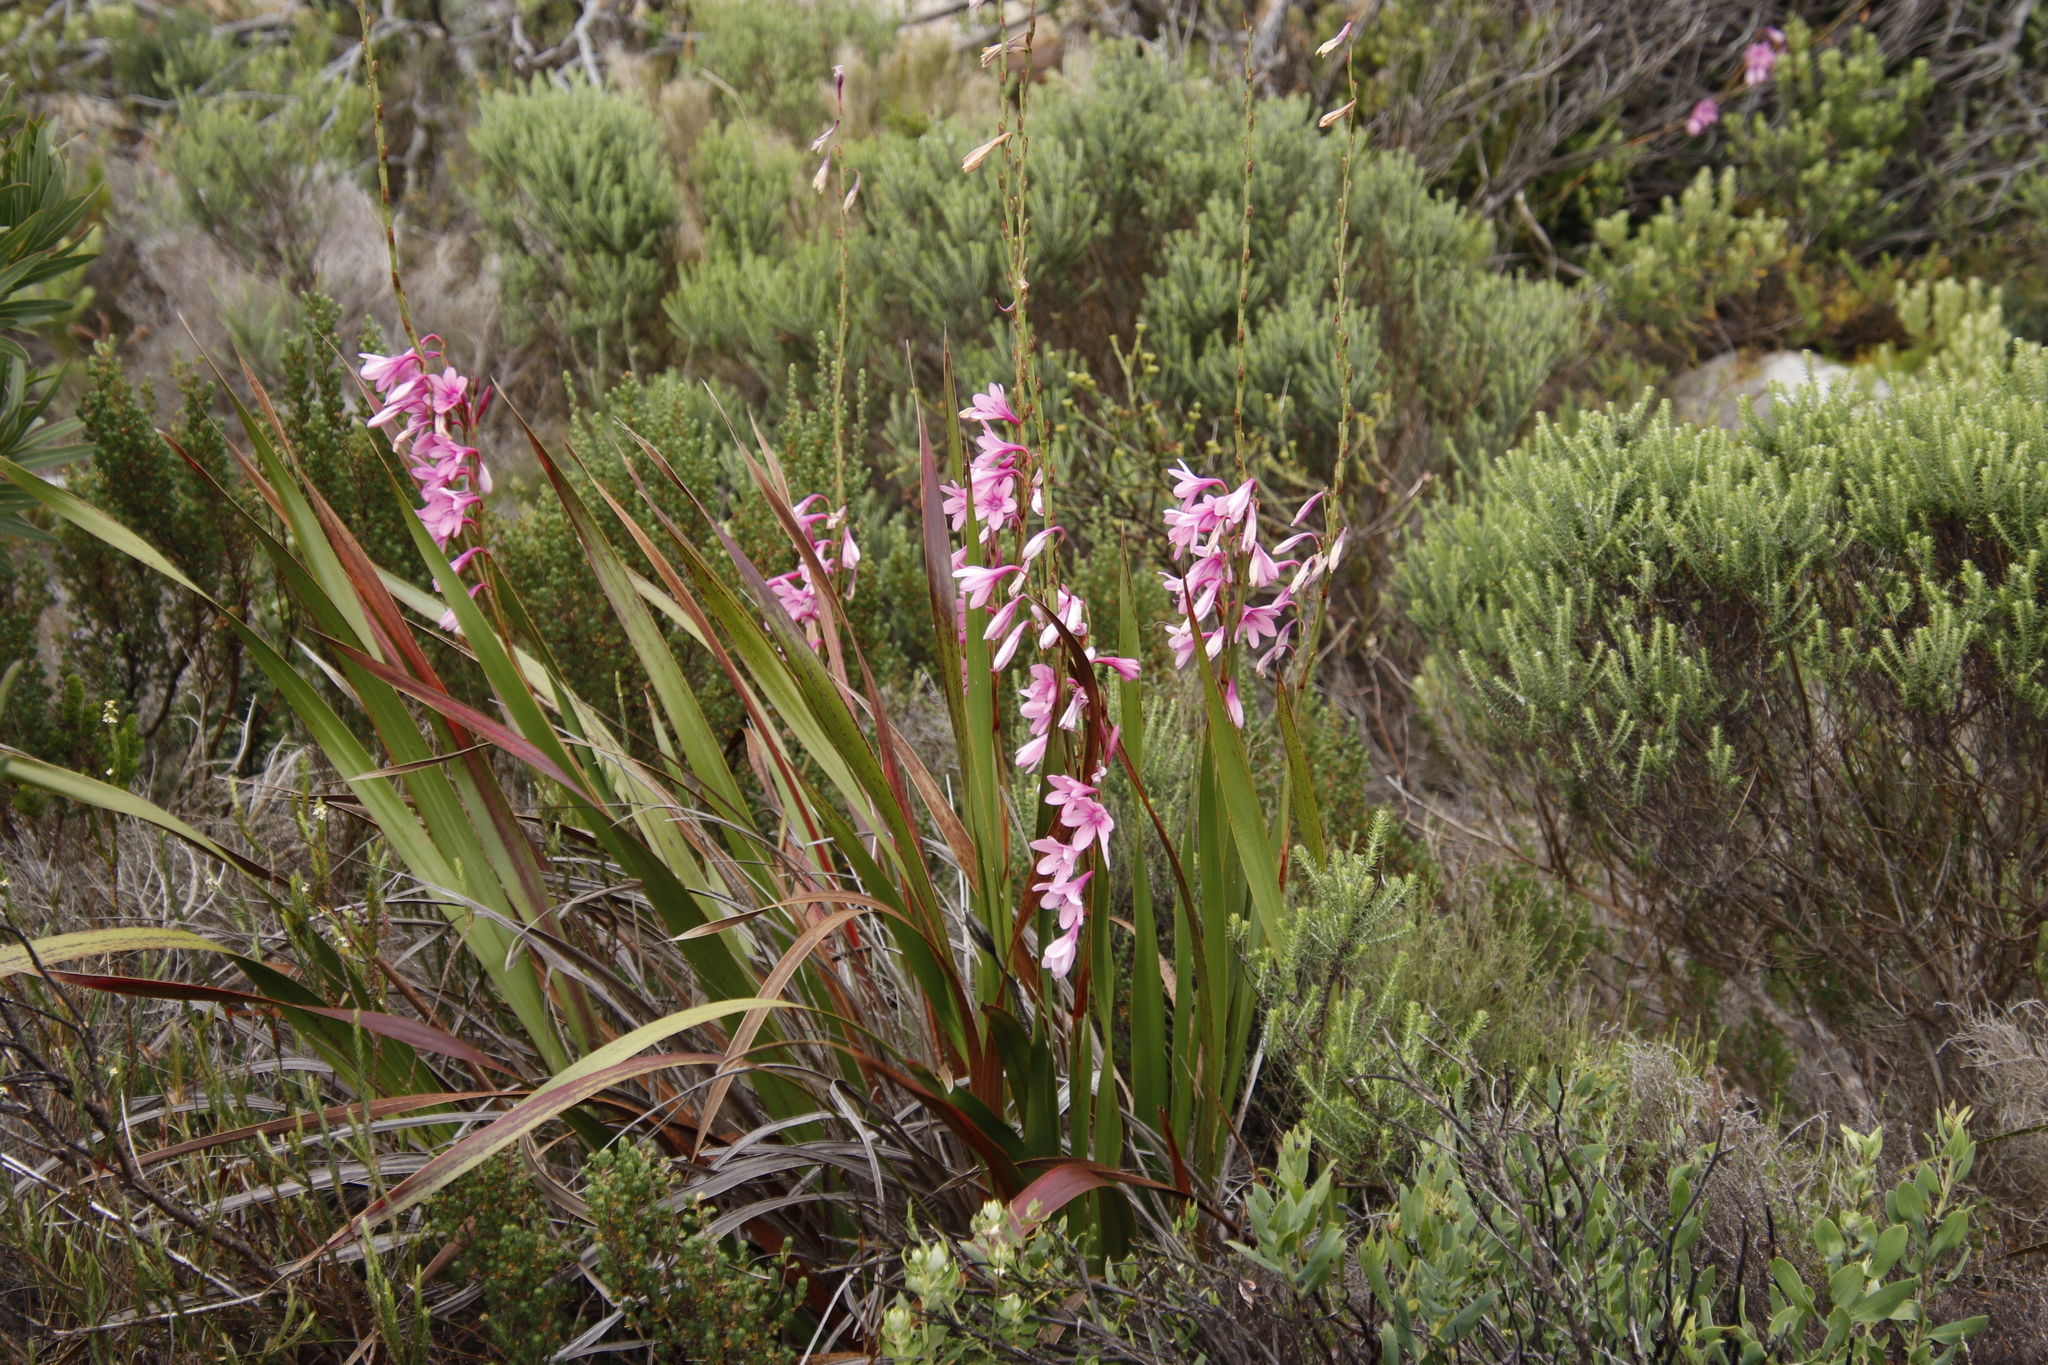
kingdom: Plantae
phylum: Tracheophyta
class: Liliopsida
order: Asparagales
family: Iridaceae
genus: Watsonia
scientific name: Watsonia borbonica
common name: Bugle-lily
